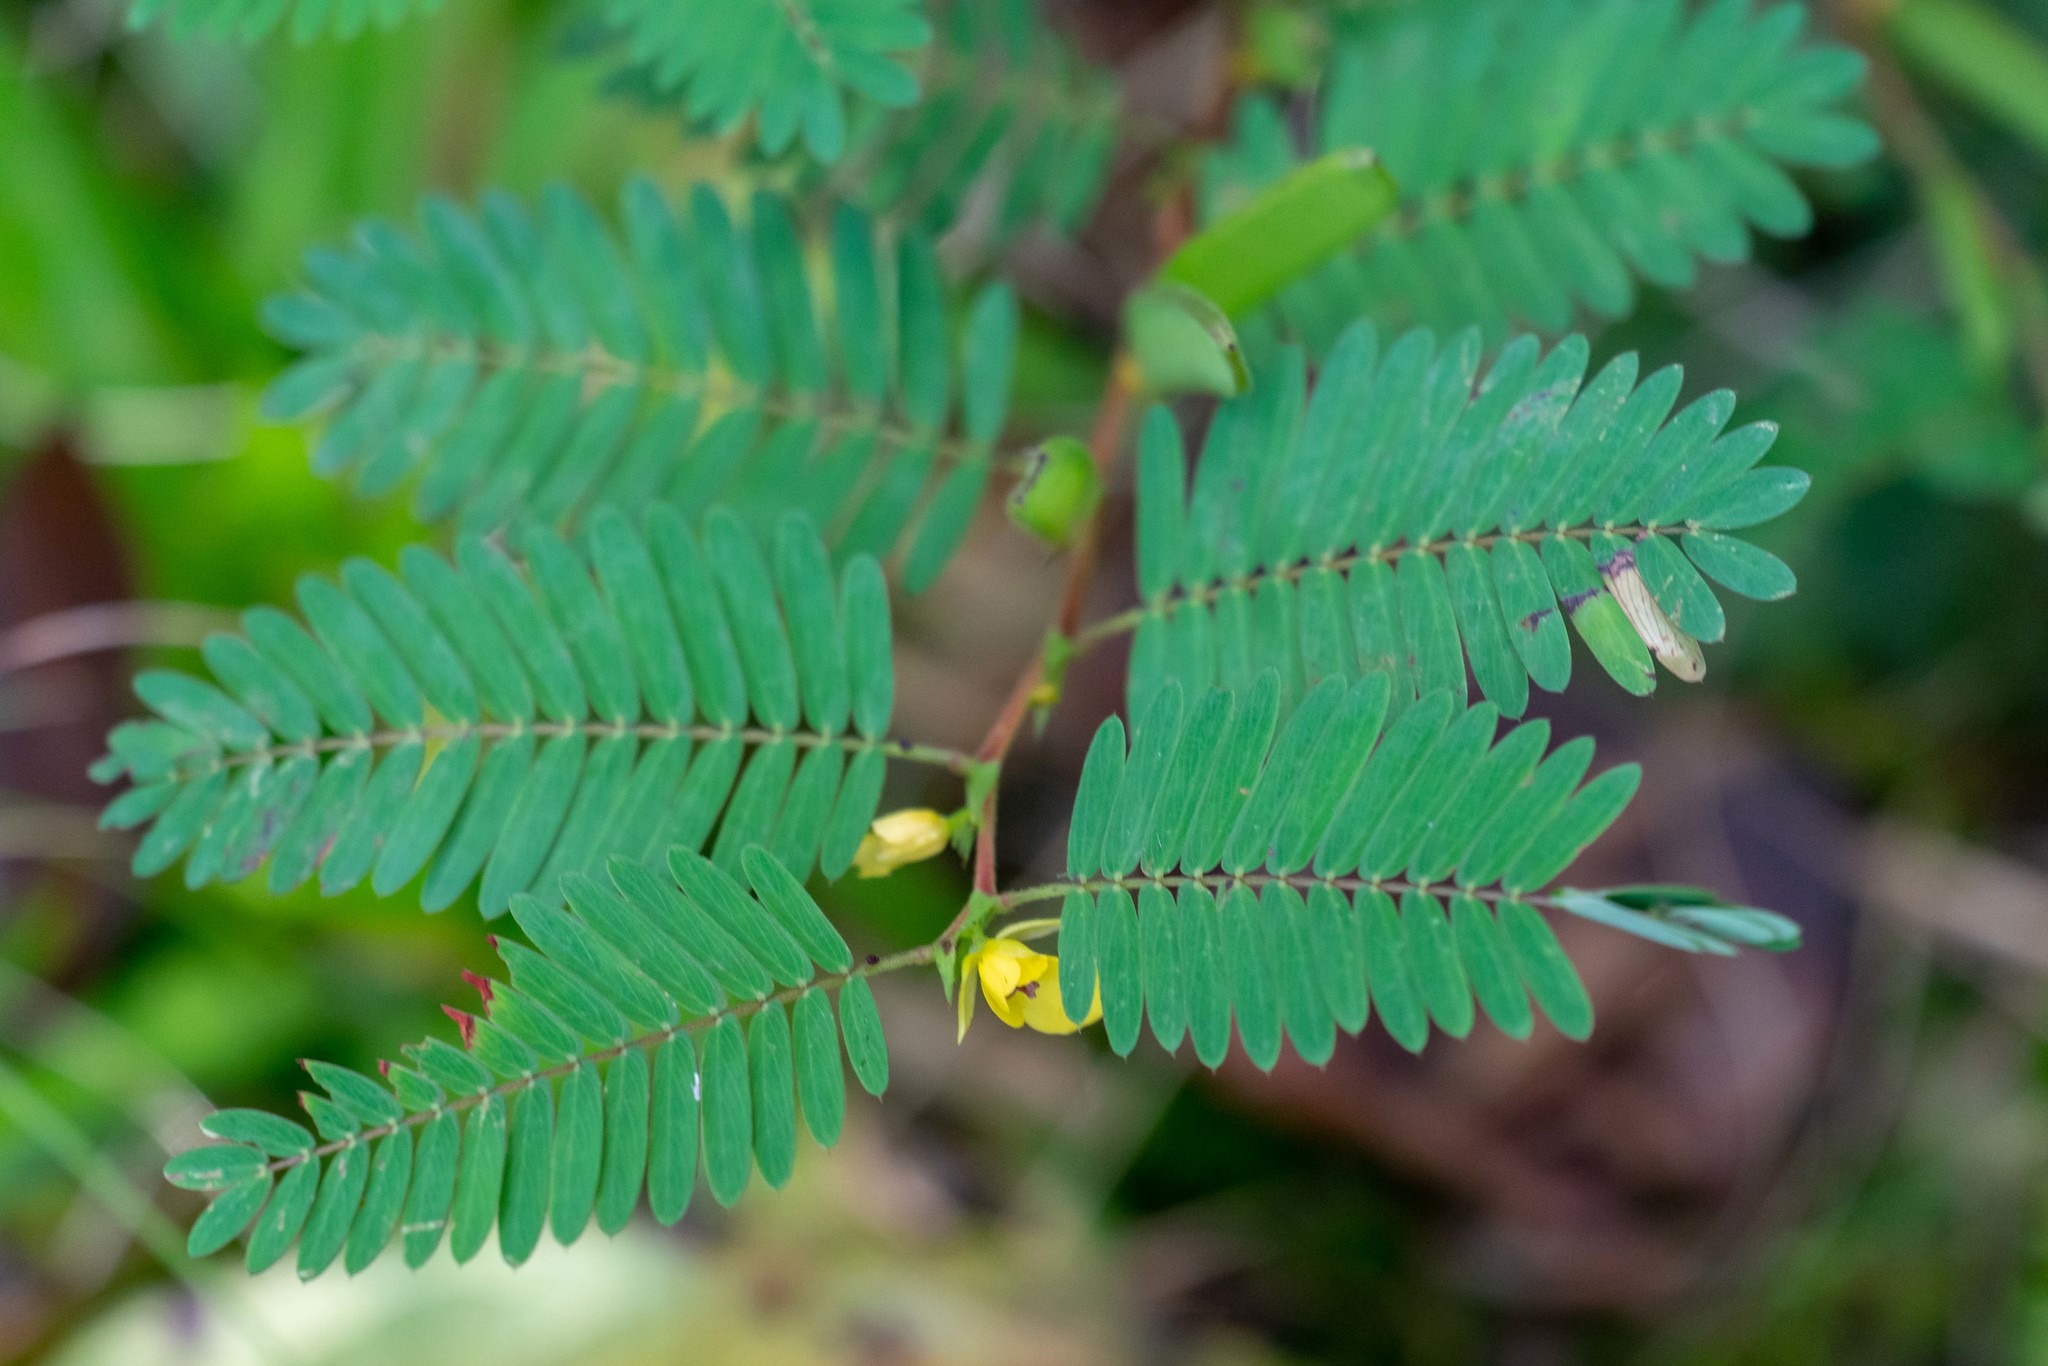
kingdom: Plantae
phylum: Tracheophyta
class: Magnoliopsida
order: Fabales
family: Fabaceae
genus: Chamaecrista
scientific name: Chamaecrista nictitans
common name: Sensitive cassia
